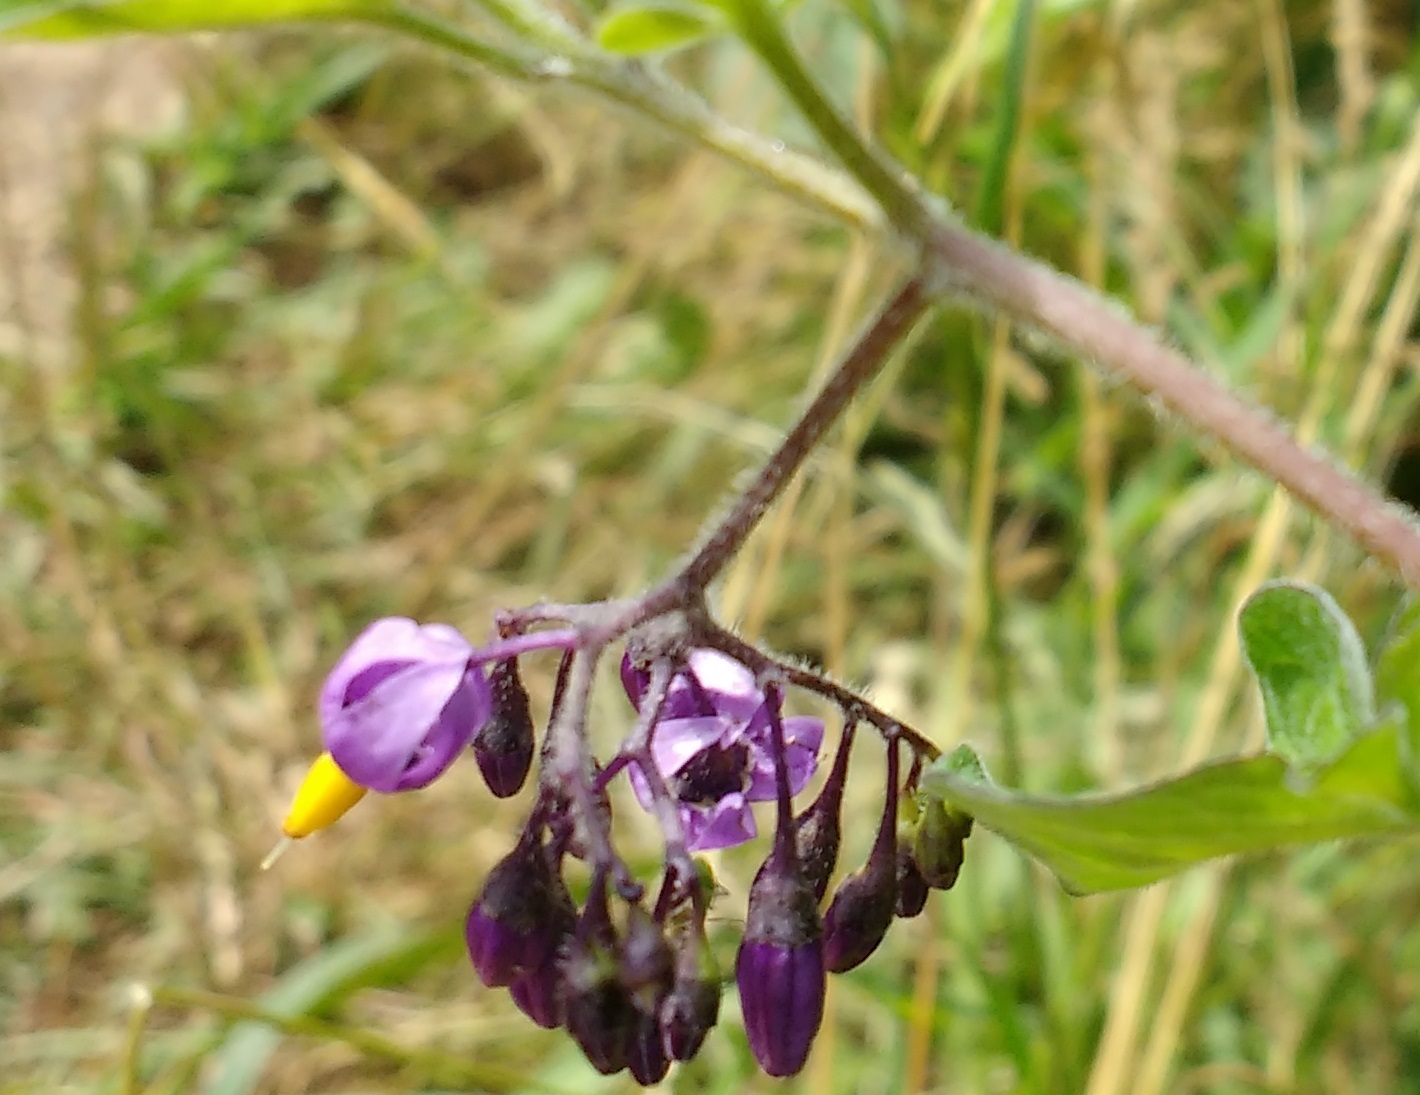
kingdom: Plantae
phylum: Tracheophyta
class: Magnoliopsida
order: Solanales
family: Solanaceae
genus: Solanum
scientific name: Solanum dulcamara
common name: Climbing nightshade
